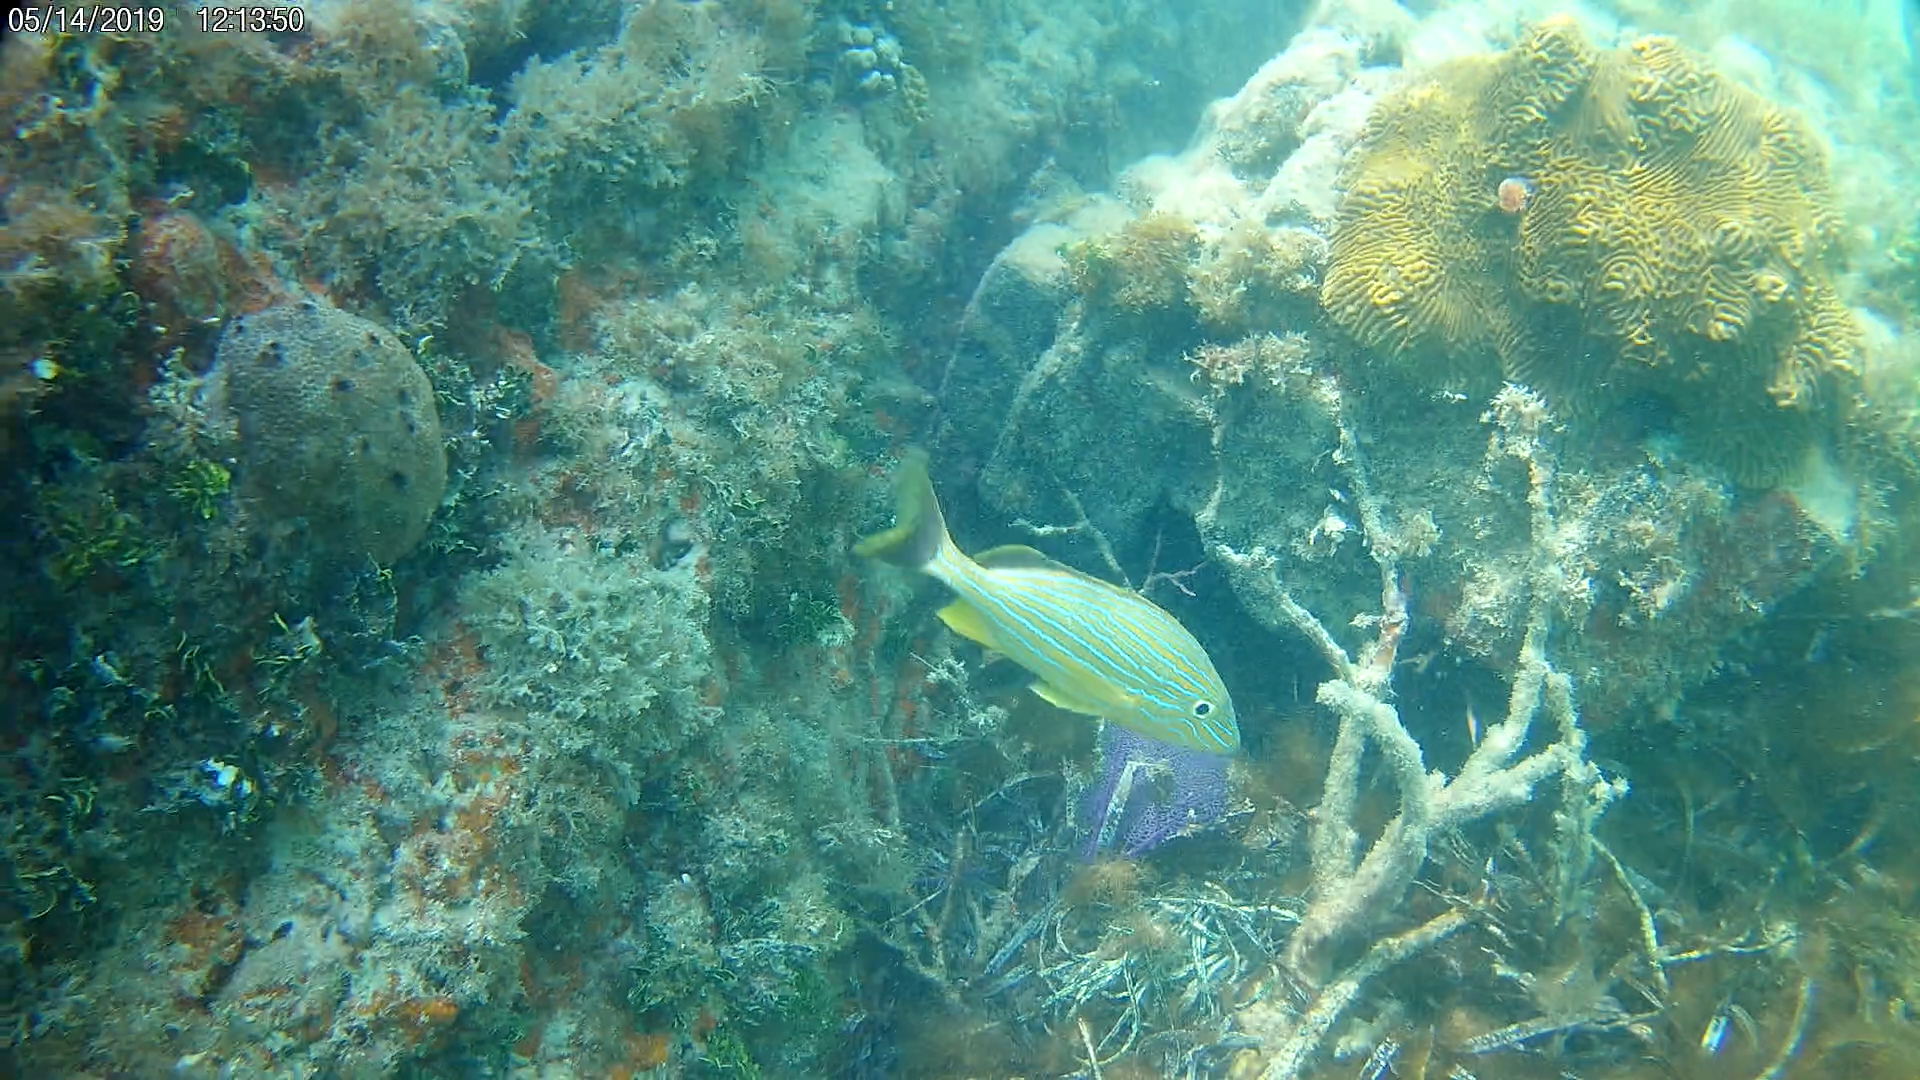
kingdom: Animalia
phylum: Chordata
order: Perciformes
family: Haemulidae
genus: Haemulon
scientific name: Haemulon sciurus
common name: Bluestriped grunt
